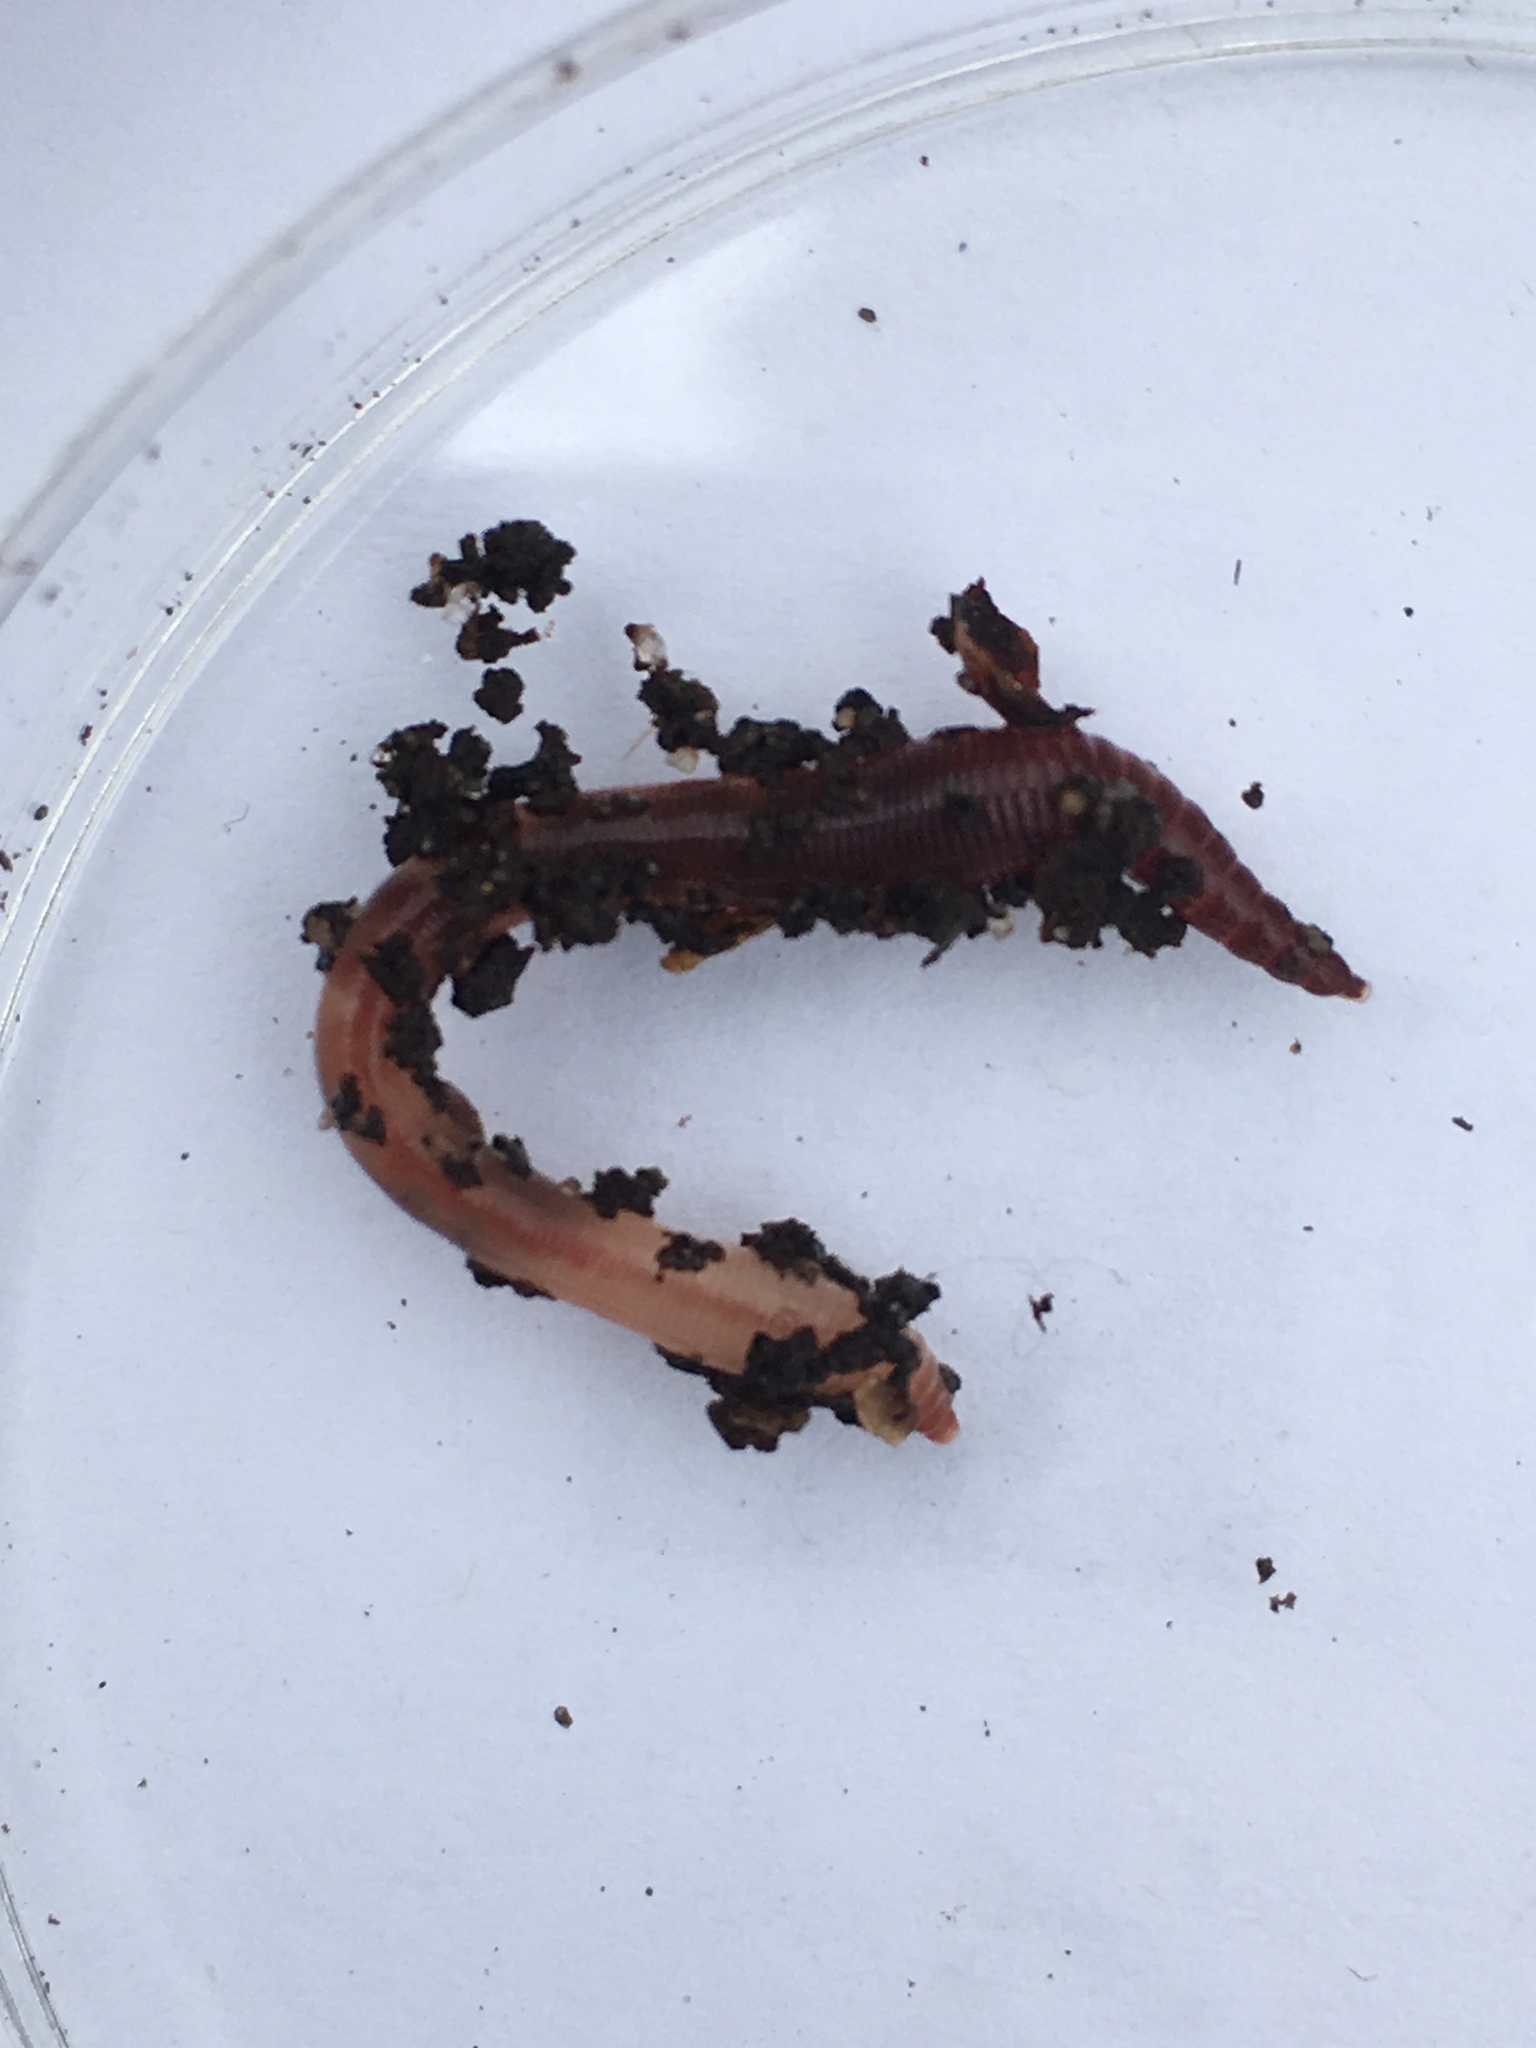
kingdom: Animalia
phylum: Annelida
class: Clitellata
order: Crassiclitellata
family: Lumbricidae
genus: Lumbricus
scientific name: Lumbricus terrestris
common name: Common earthworm
